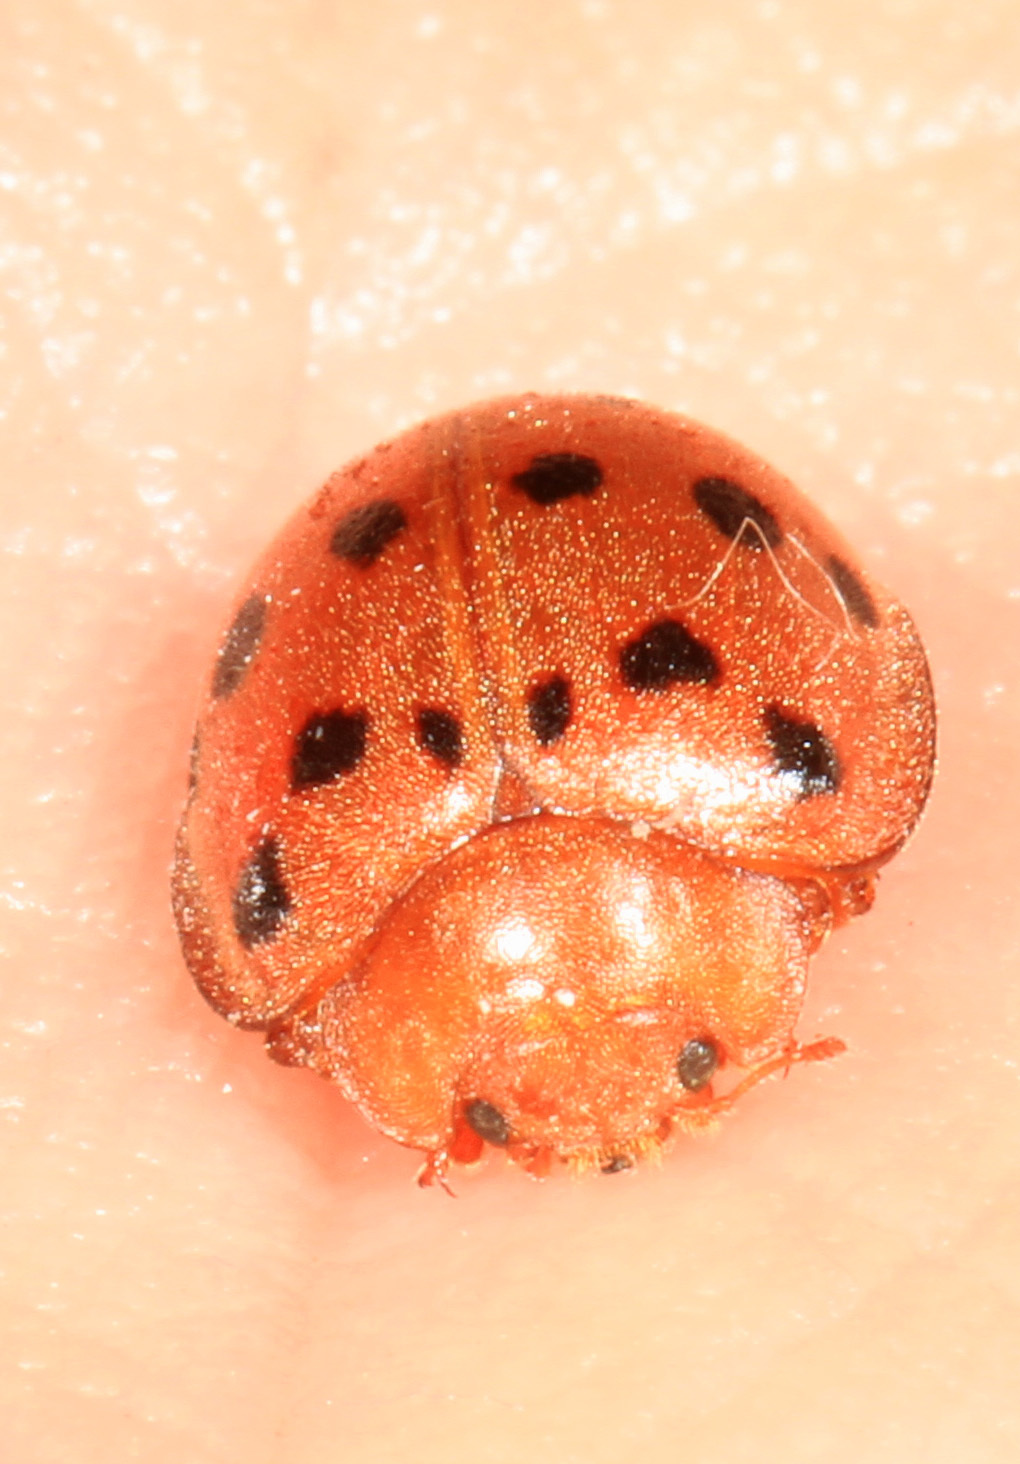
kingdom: Animalia
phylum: Arthropoda
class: Insecta
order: Coleoptera
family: Coccinellidae
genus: Epilachna
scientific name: Epilachna varivestis
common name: Ladybird beetle
